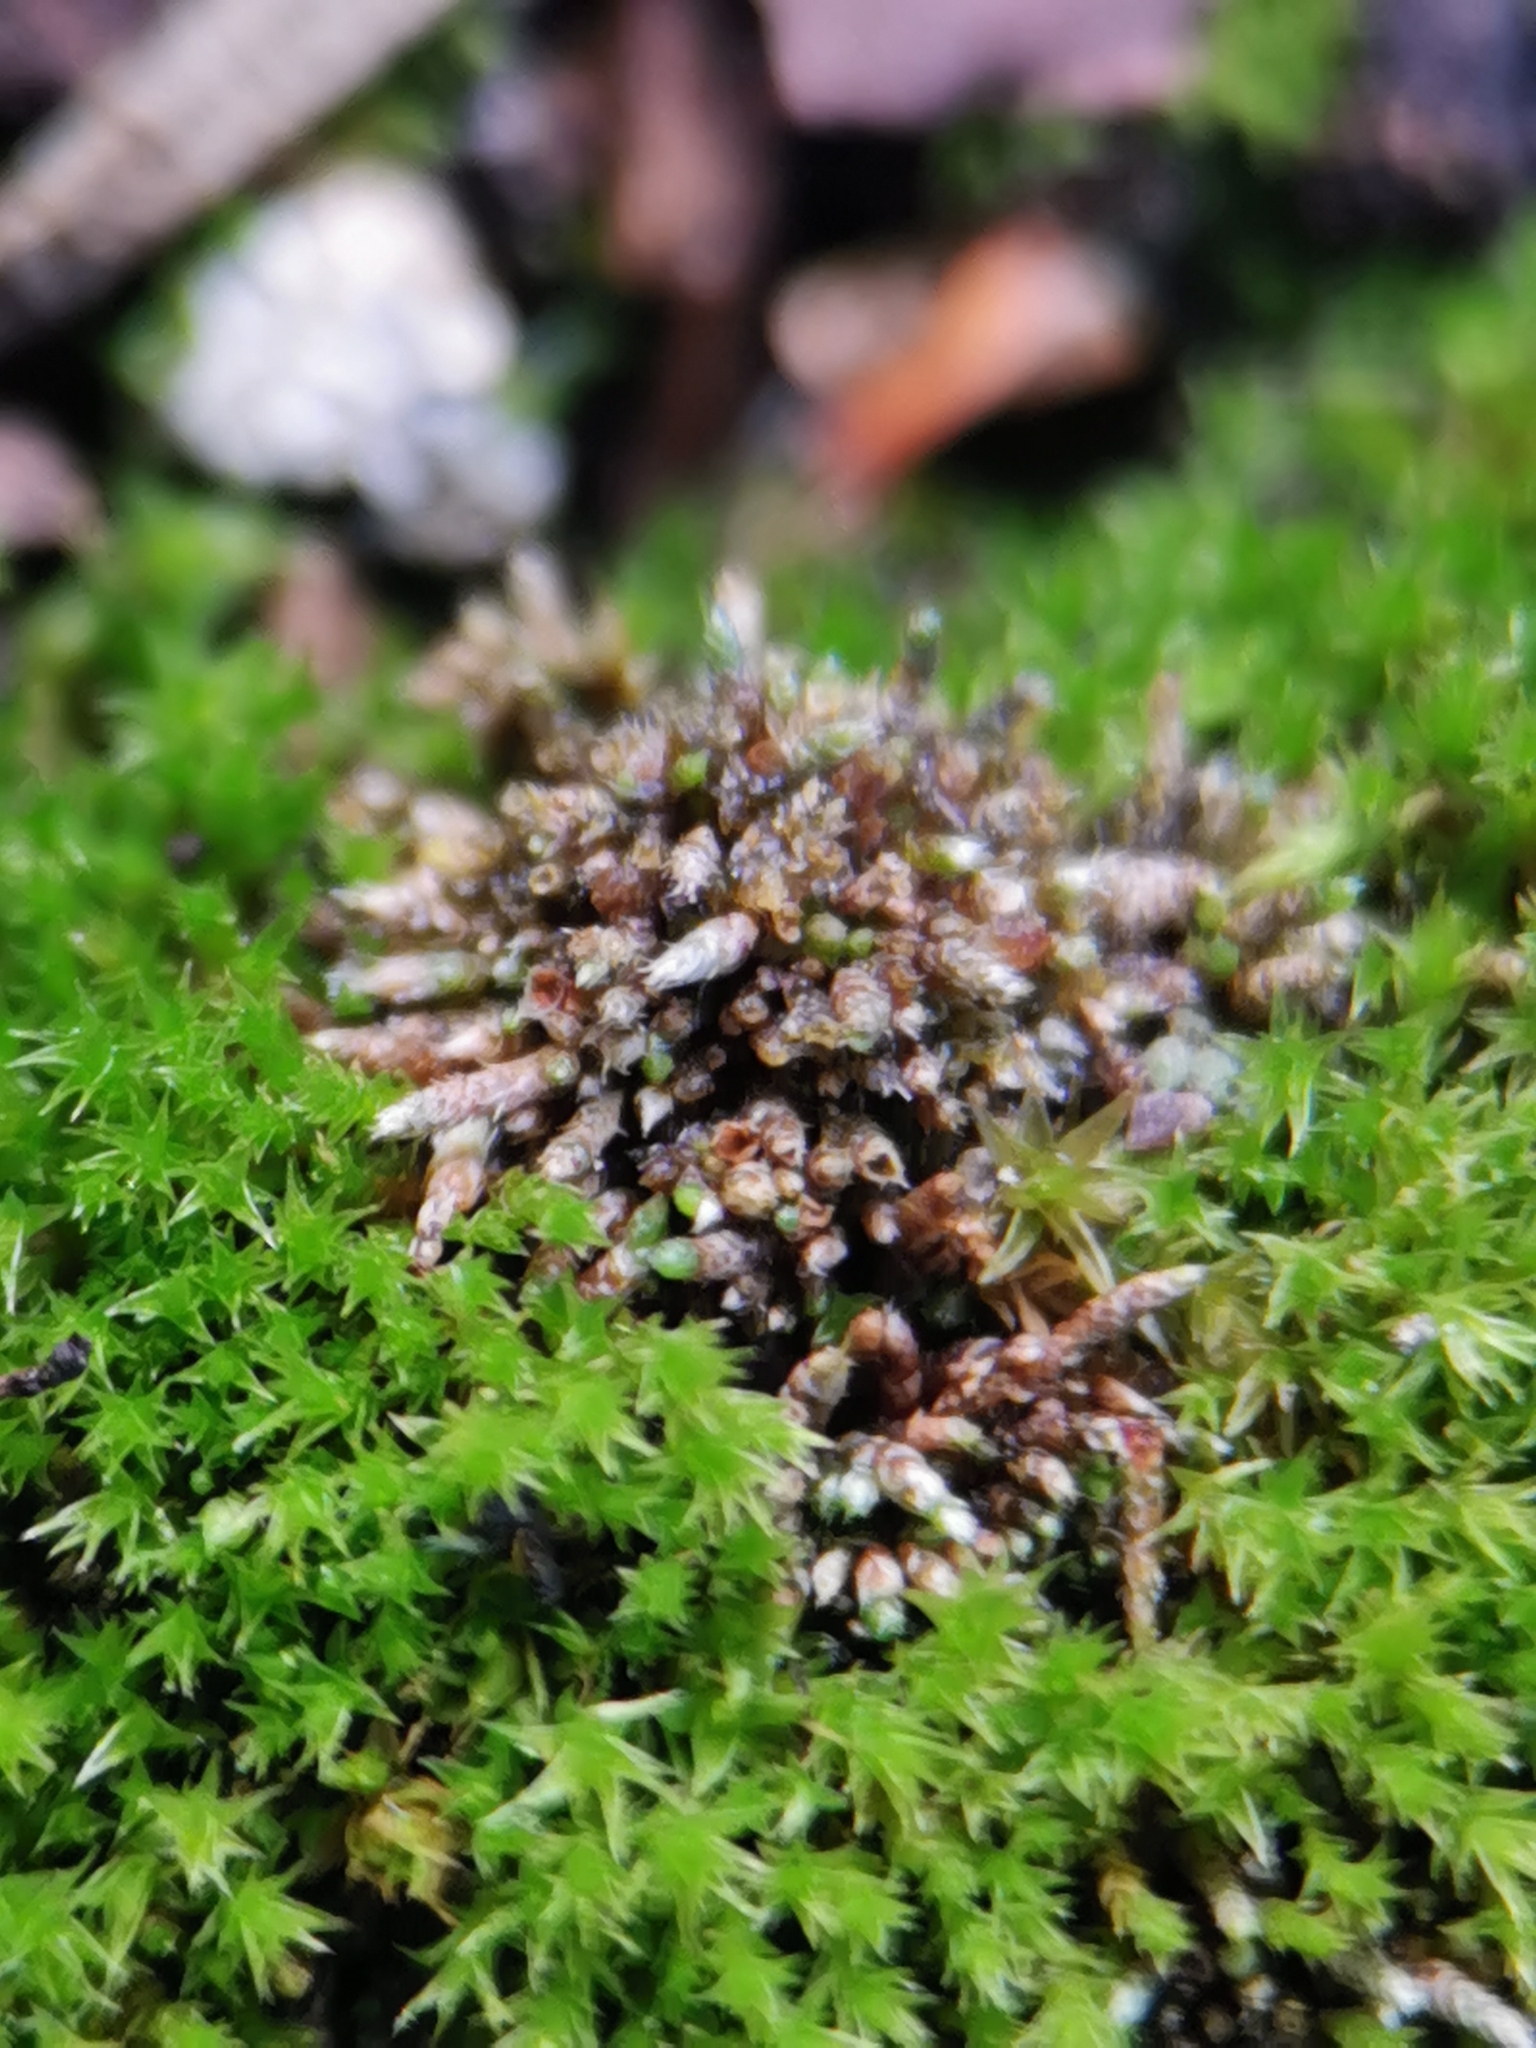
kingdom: Plantae
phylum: Bryophyta
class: Bryopsida
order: Bryales
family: Bryaceae
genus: Bryum
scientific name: Bryum argenteum
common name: Silver-moss
